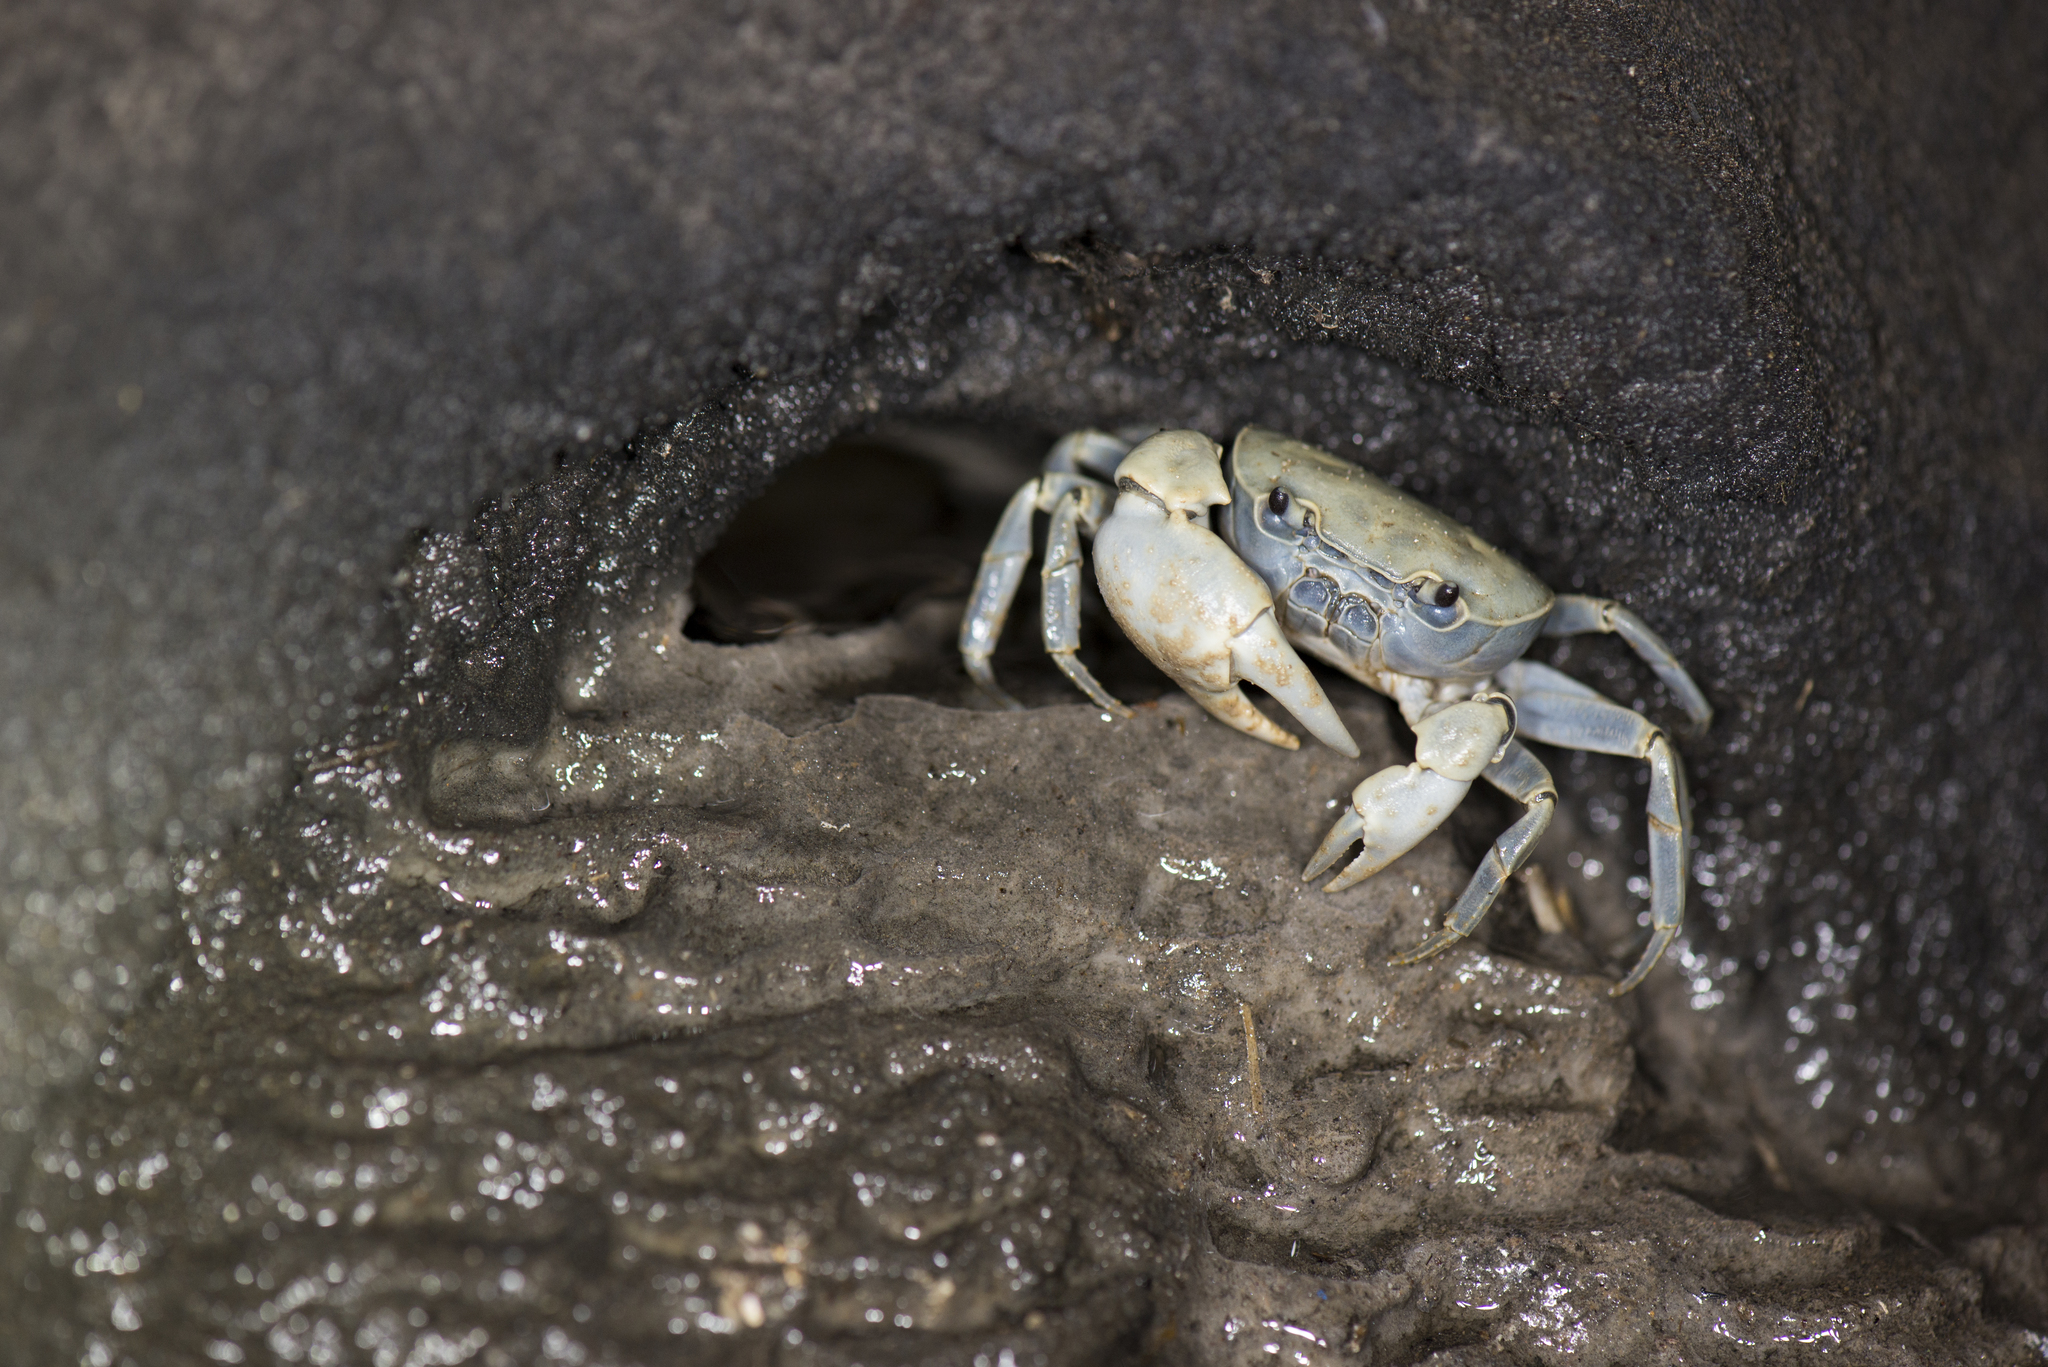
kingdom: Animalia
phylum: Arthropoda
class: Malacostraca
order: Decapoda
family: Potamidae
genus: Geothelphusa
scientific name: Geothelphusa olea
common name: Yellow-green crab
